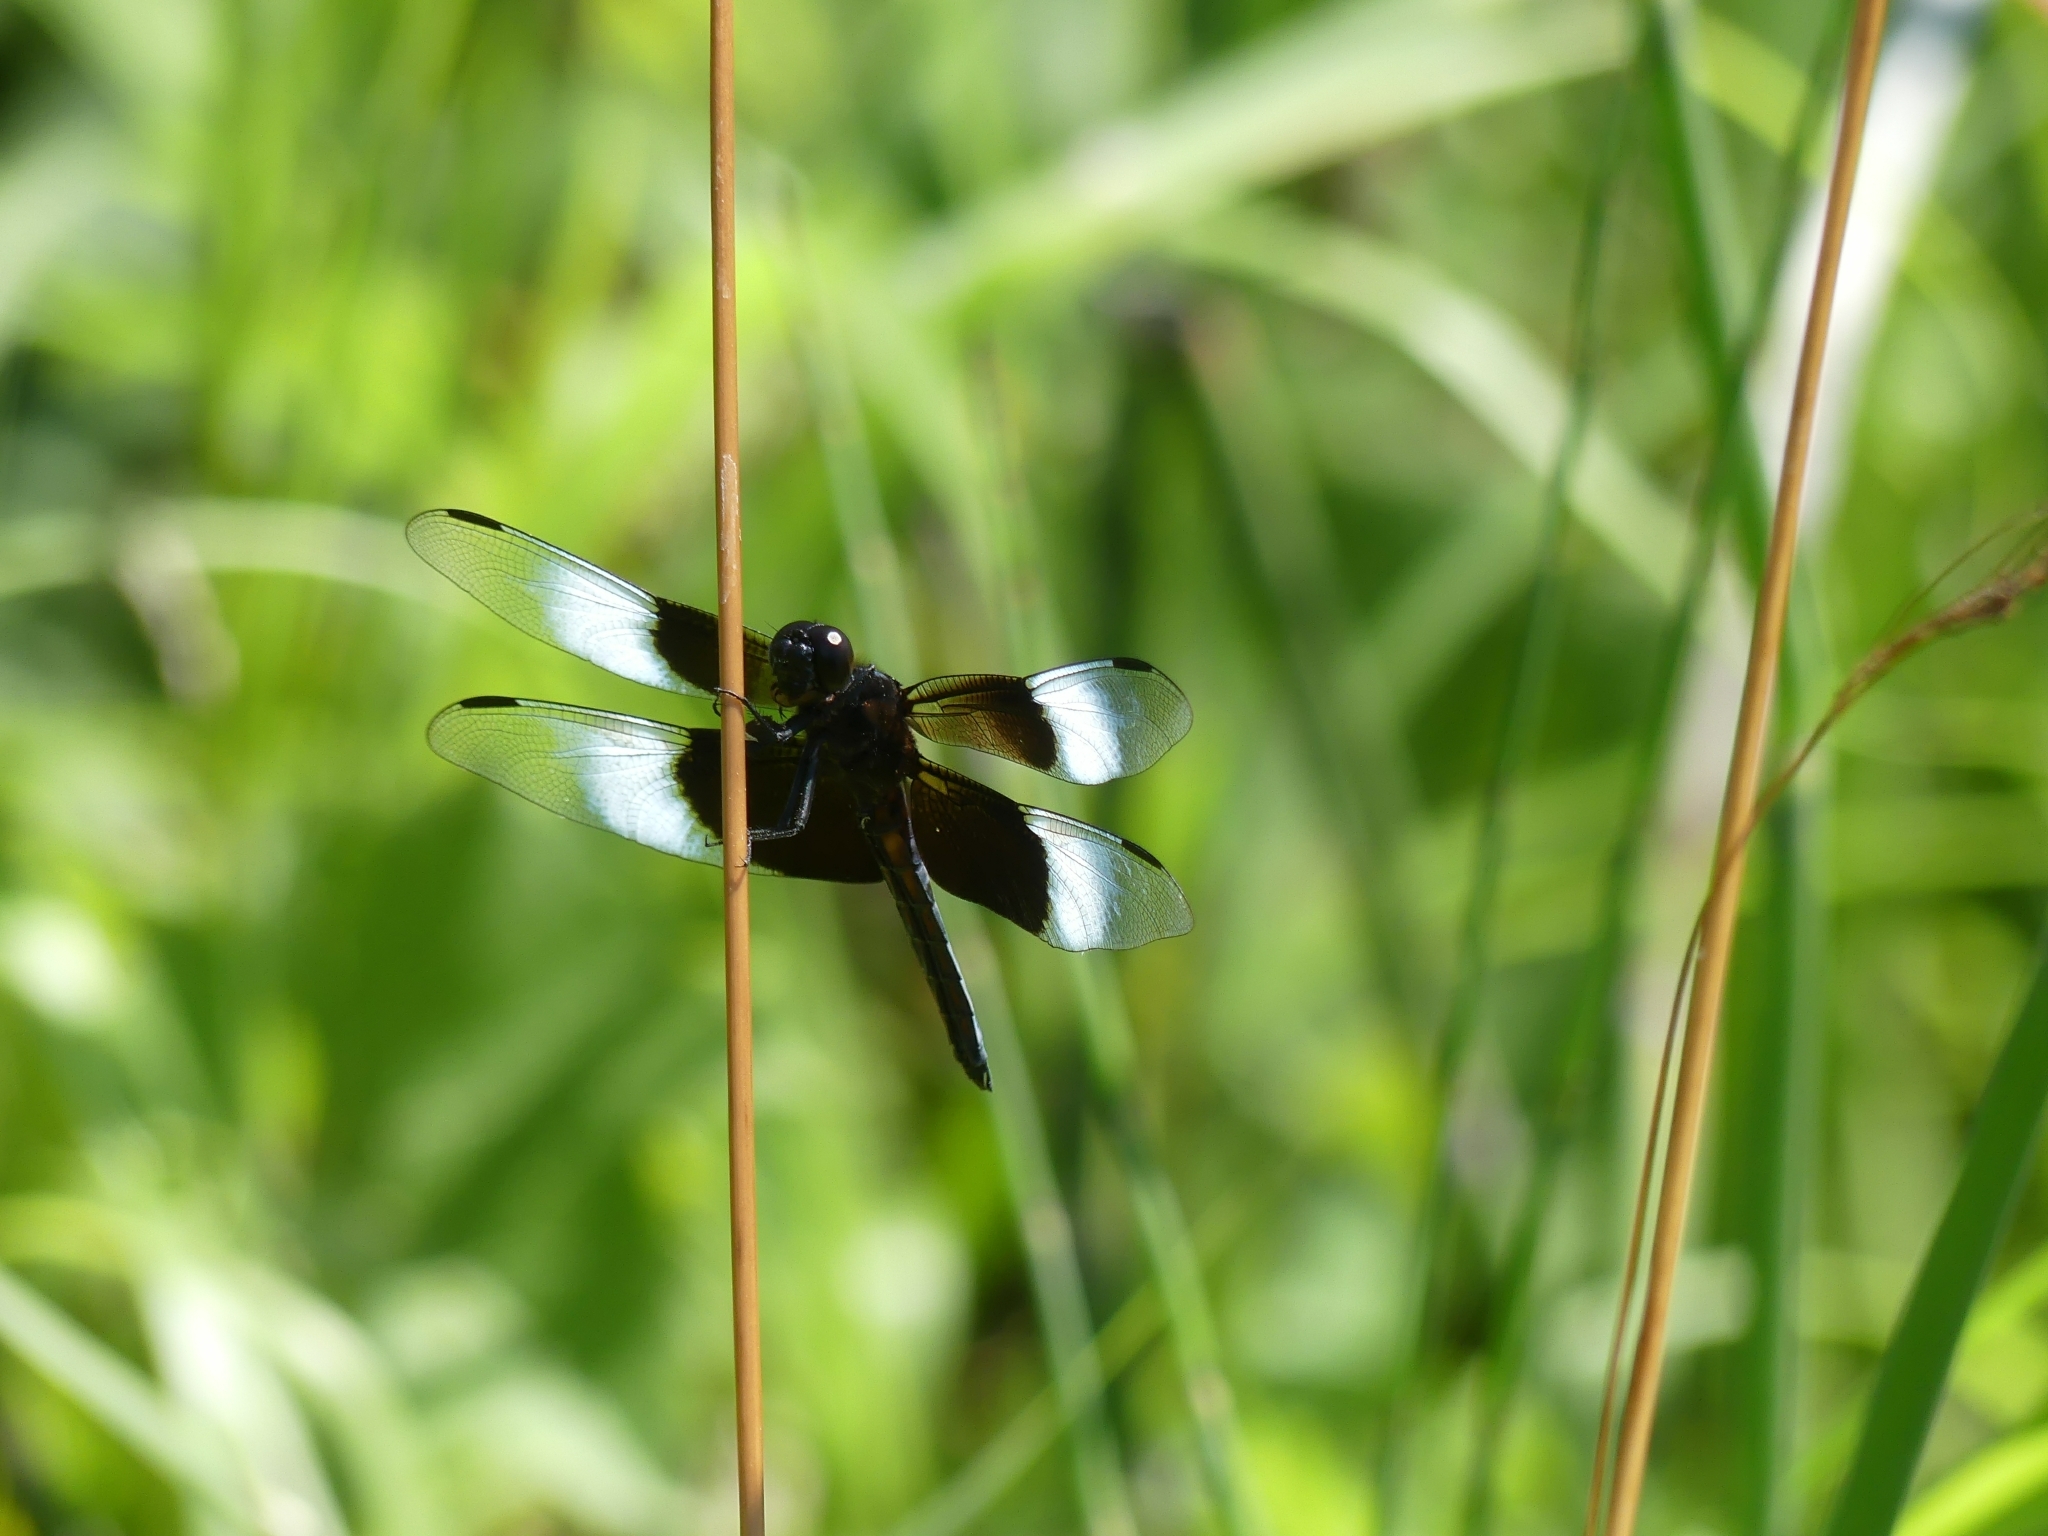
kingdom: Animalia
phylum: Arthropoda
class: Insecta
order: Odonata
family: Libellulidae
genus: Libellula
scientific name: Libellula luctuosa
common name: Widow skimmer
